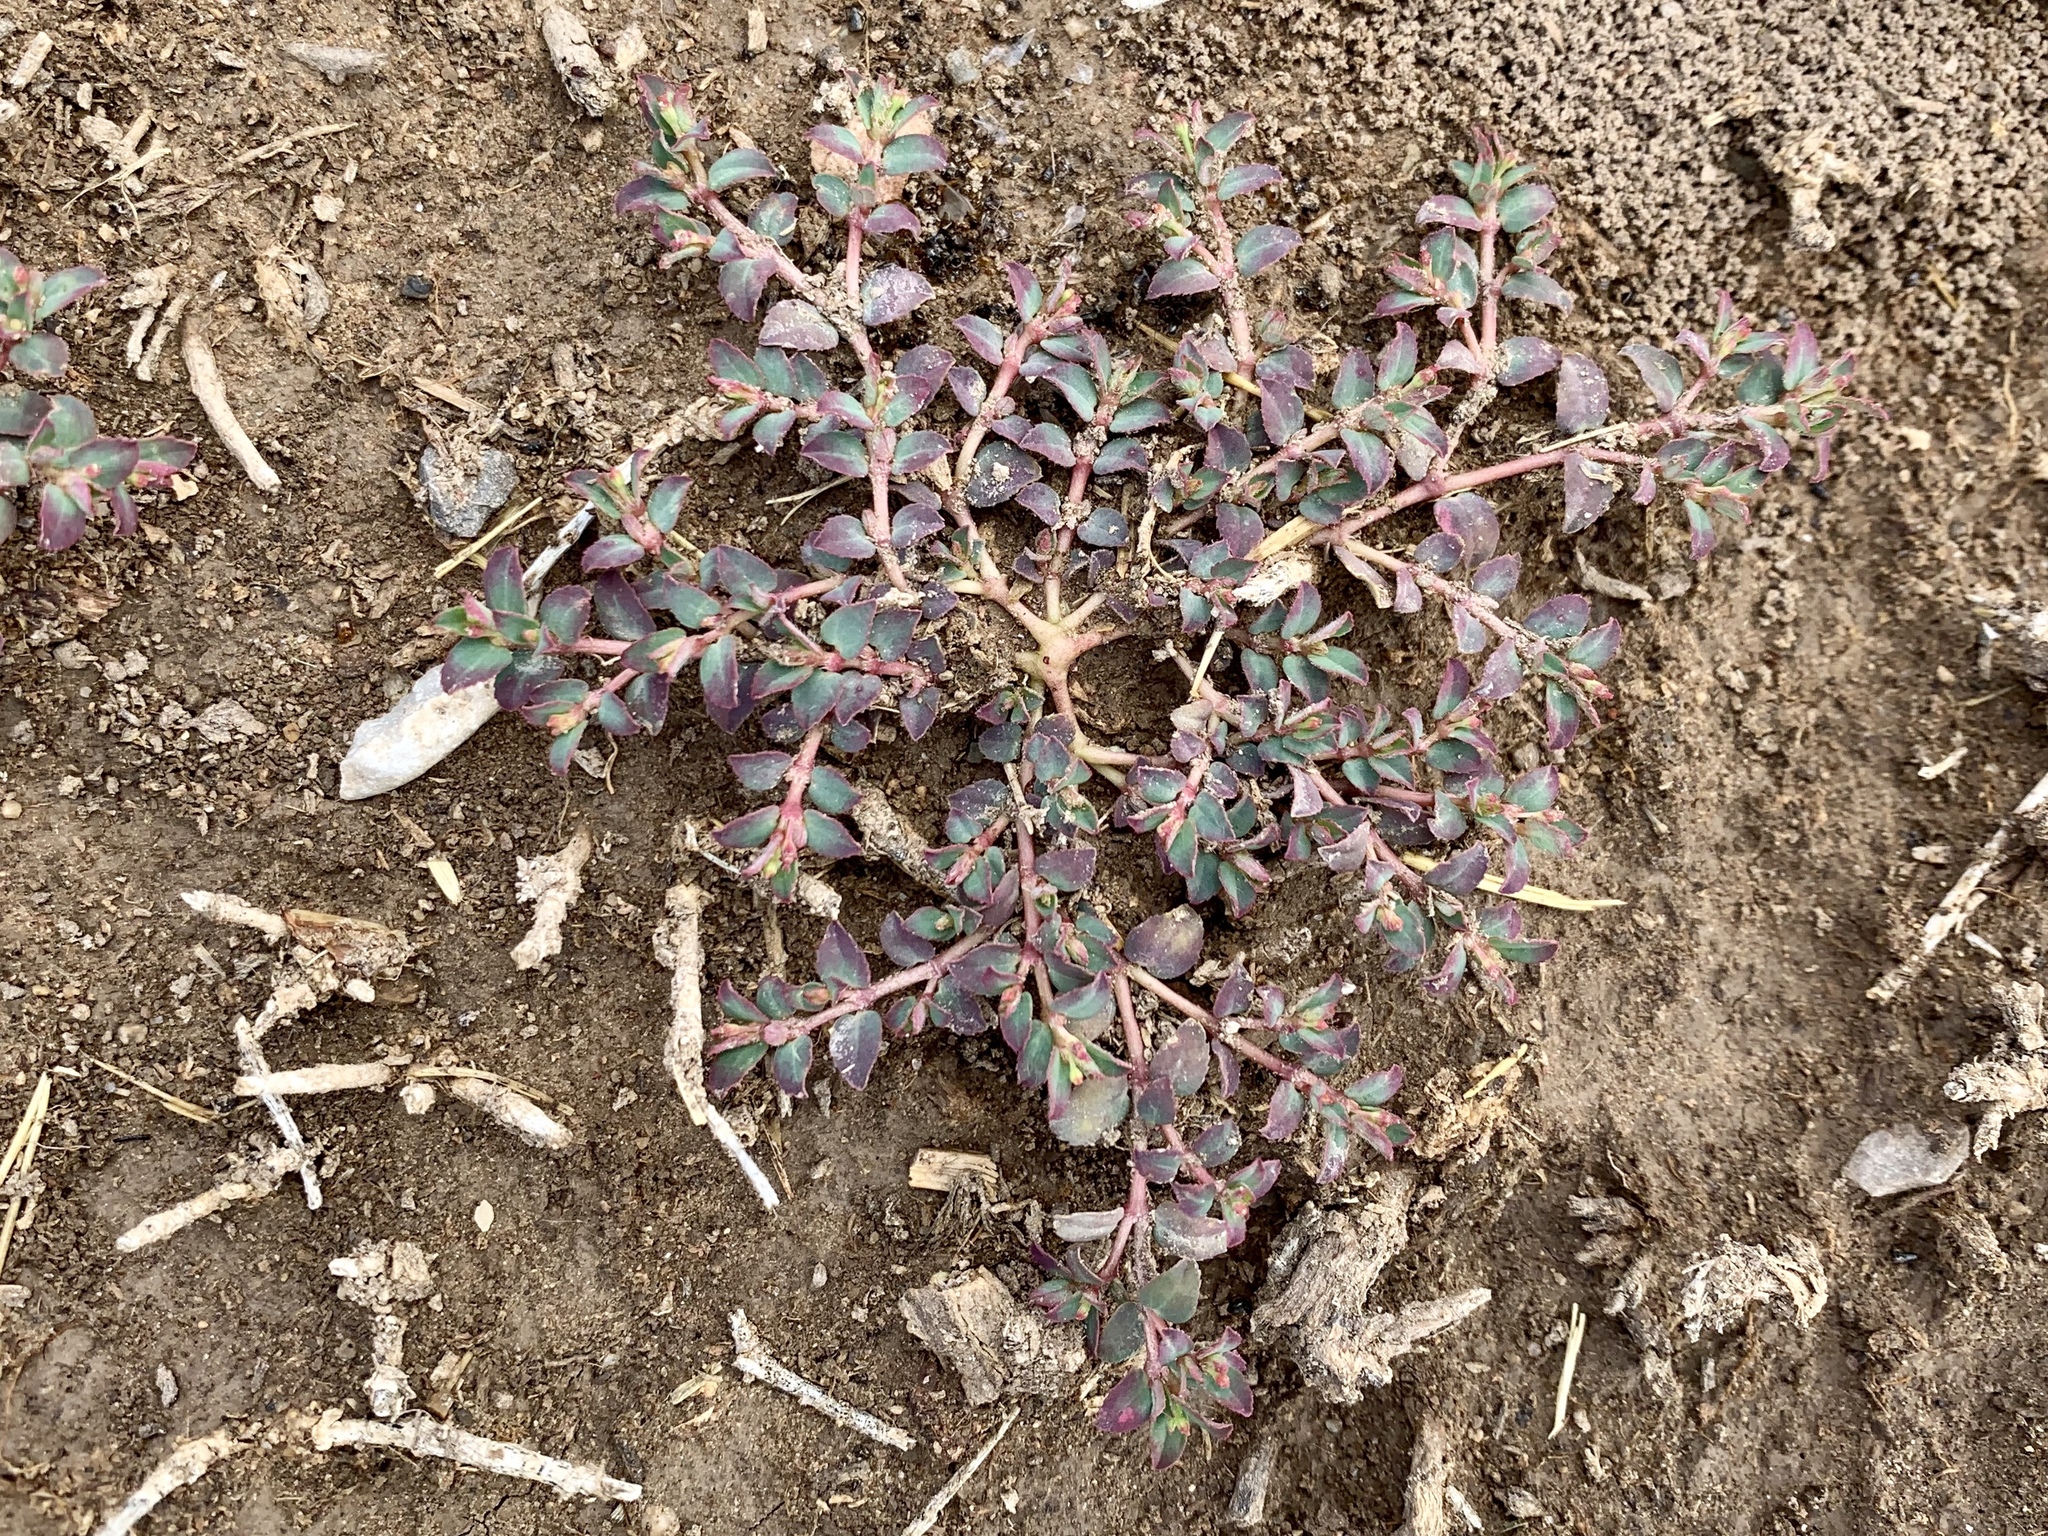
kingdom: Plantae
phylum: Tracheophyta
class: Magnoliopsida
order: Malpighiales
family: Euphorbiaceae
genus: Euphorbia
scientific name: Euphorbia vermiculata
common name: Hairy spurge
